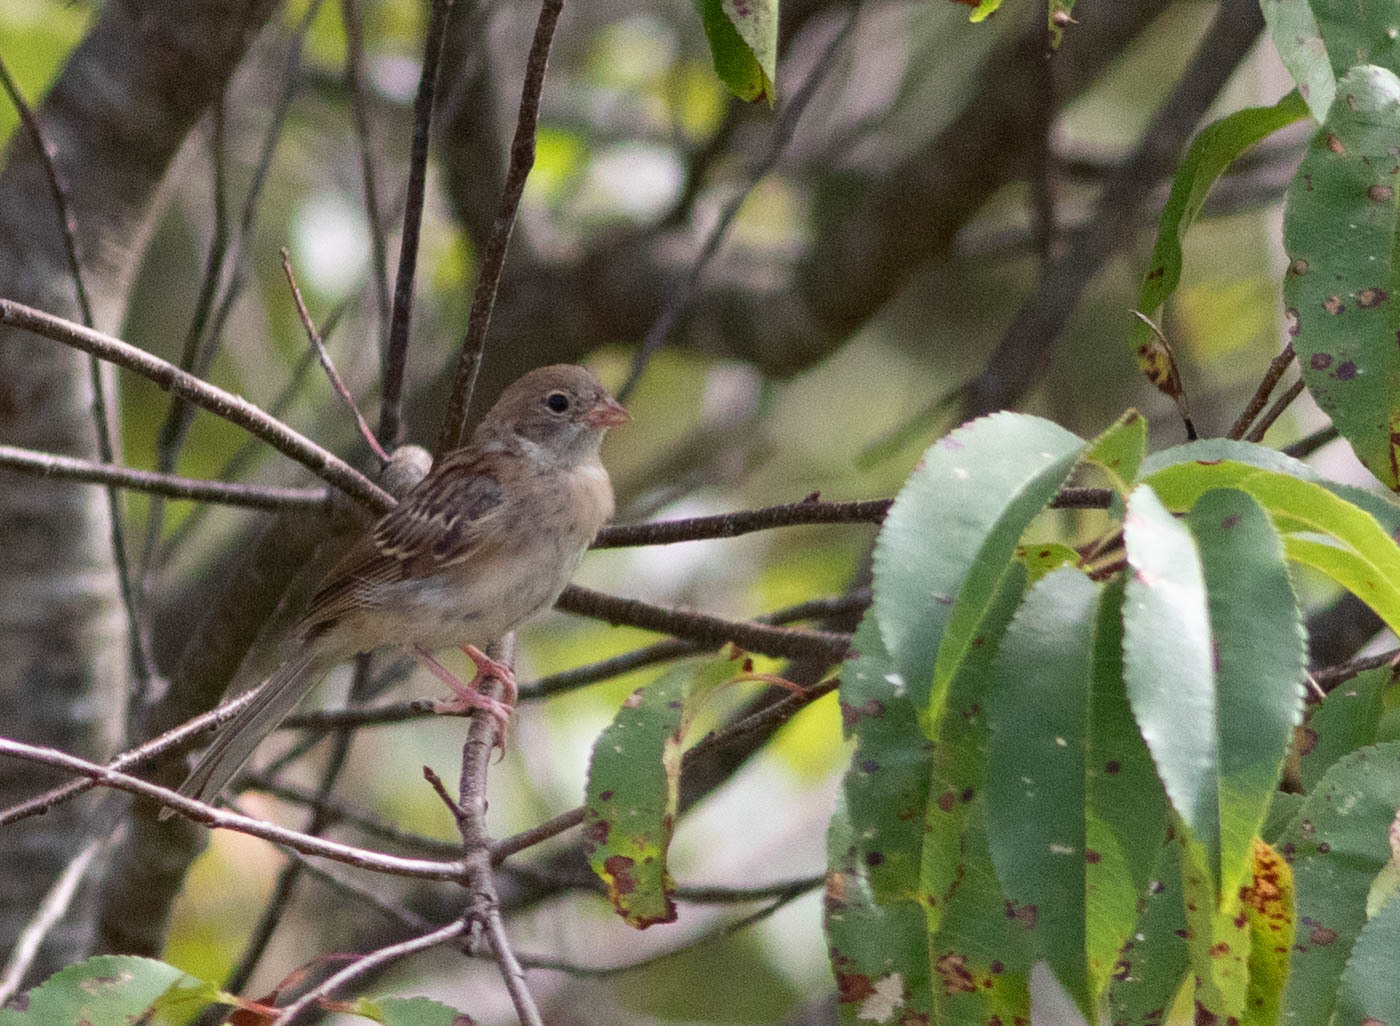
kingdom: Animalia
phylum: Chordata
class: Aves
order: Passeriformes
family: Passerellidae
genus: Spizella
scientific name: Spizella pusilla
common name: Field sparrow
